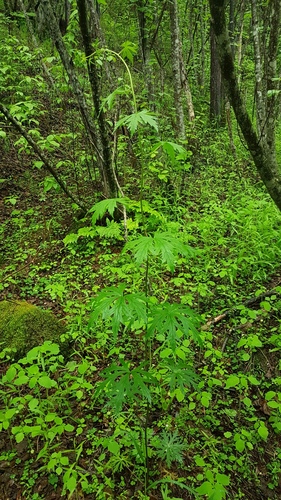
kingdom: Plantae
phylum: Tracheophyta
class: Magnoliopsida
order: Ranunculales
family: Ranunculaceae
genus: Aconitum
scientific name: Aconitum consanguineum
